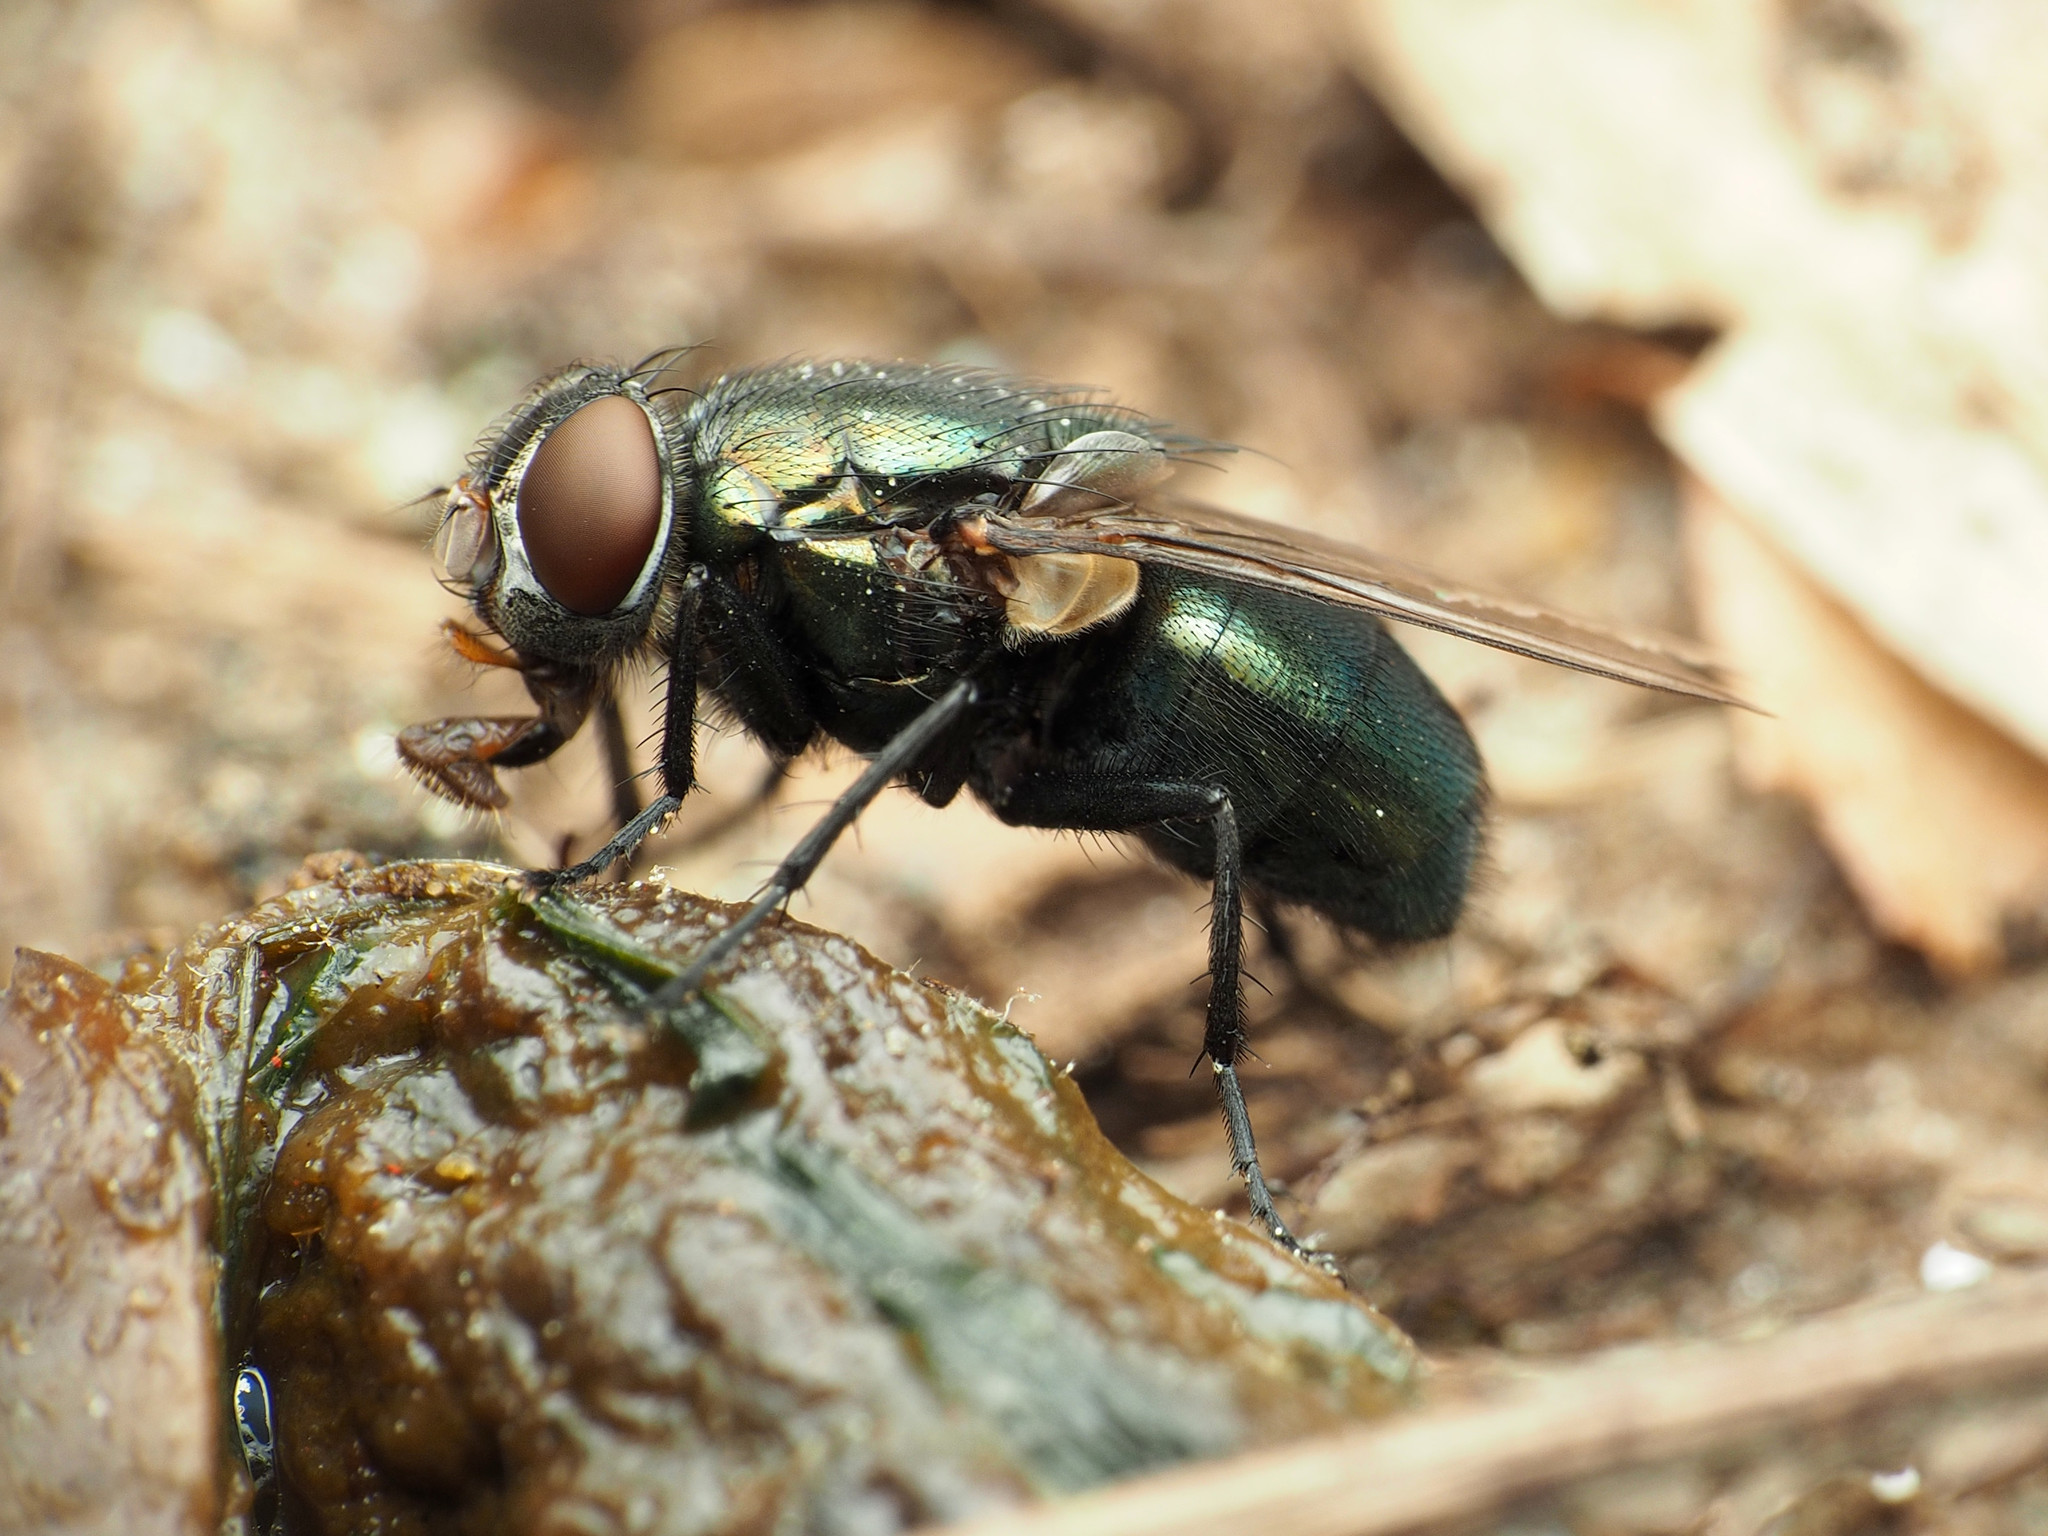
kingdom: Animalia
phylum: Arthropoda
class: Insecta
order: Diptera
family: Calliphoridae
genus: Phormia
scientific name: Phormia regina
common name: Black blow fly
